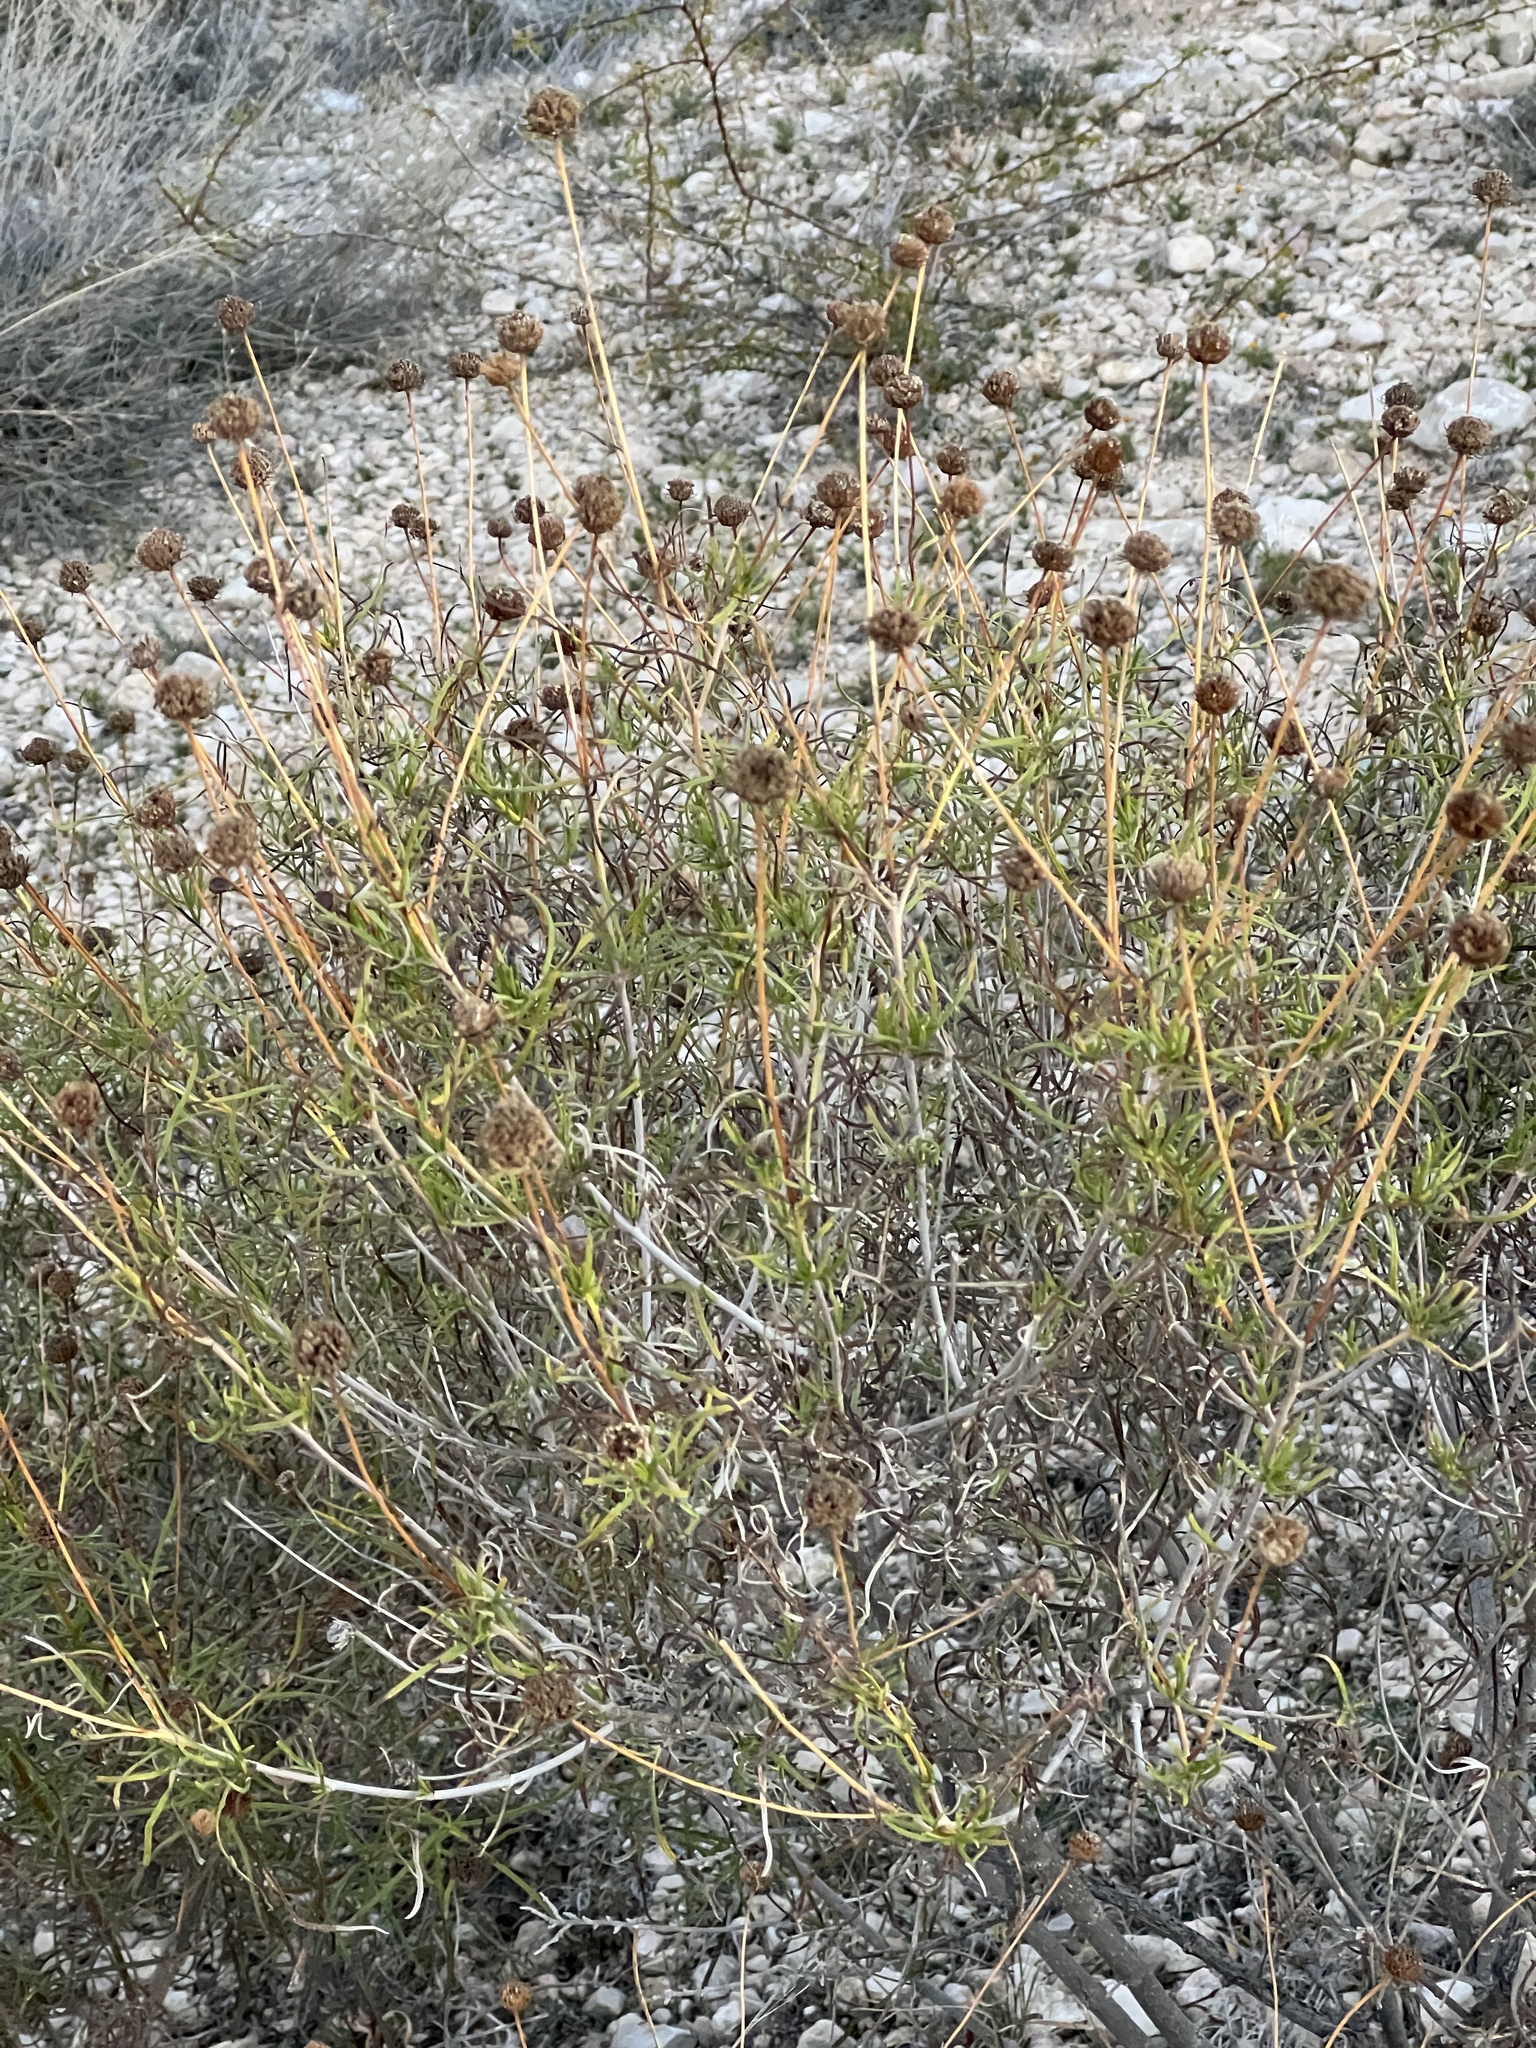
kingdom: Plantae
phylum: Tracheophyta
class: Magnoliopsida
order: Asterales
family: Asteraceae
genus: Sidneya
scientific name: Sidneya tenuifolia
